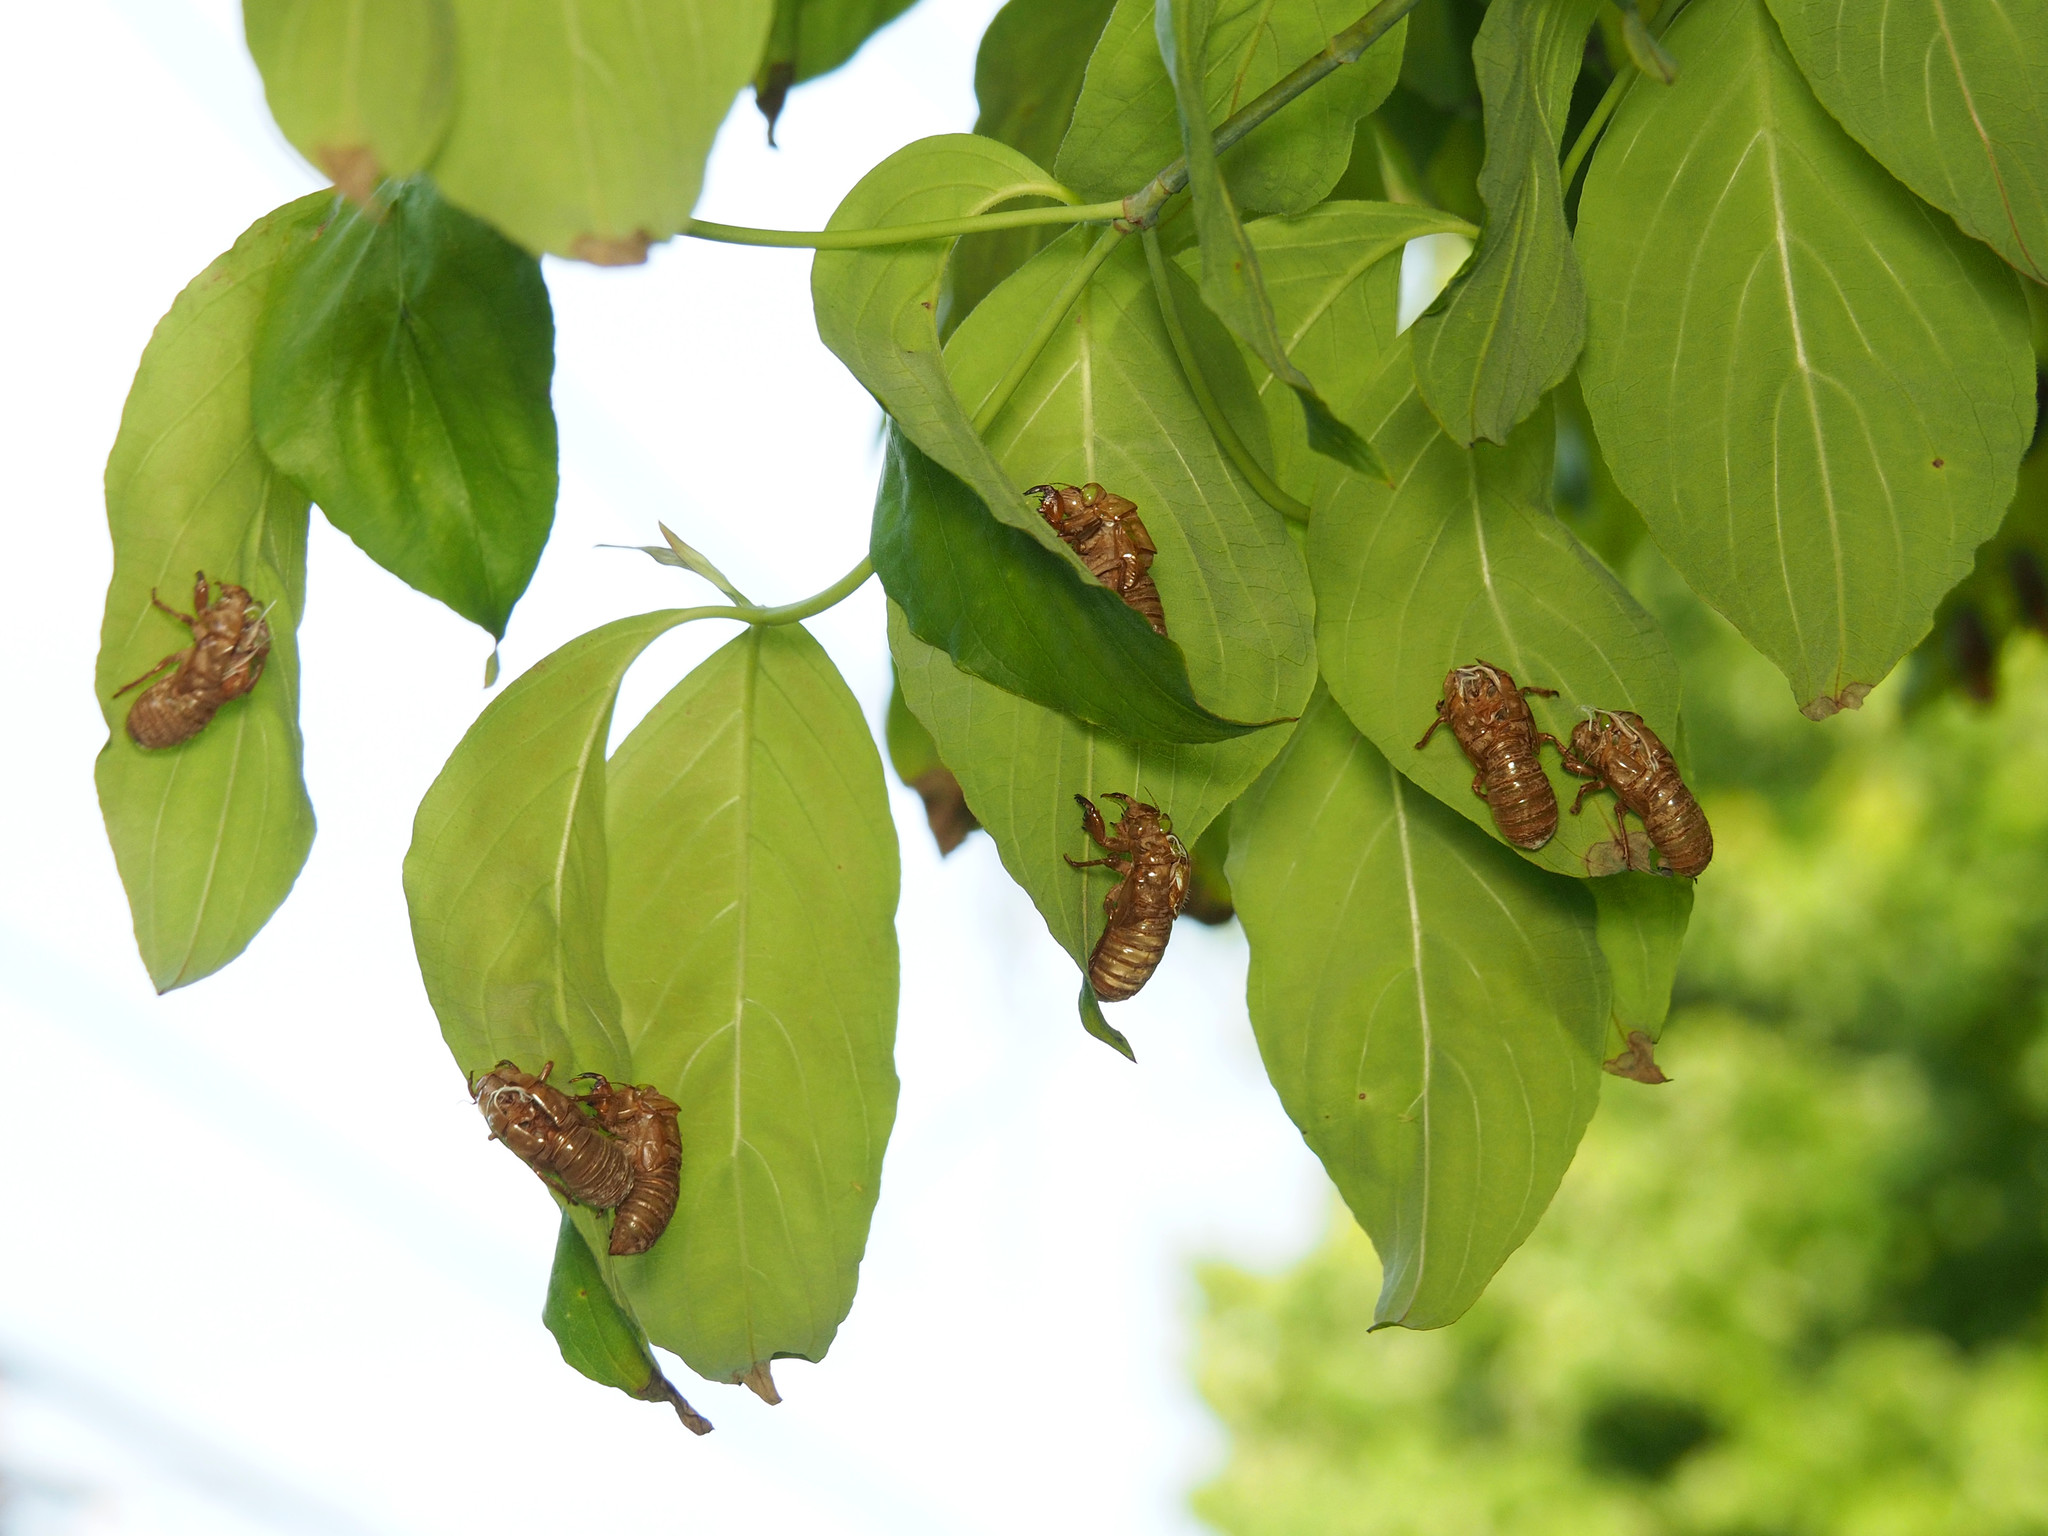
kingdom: Animalia
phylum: Arthropoda
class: Insecta
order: Hemiptera
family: Cicadidae
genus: Magicicada
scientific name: Magicicada
